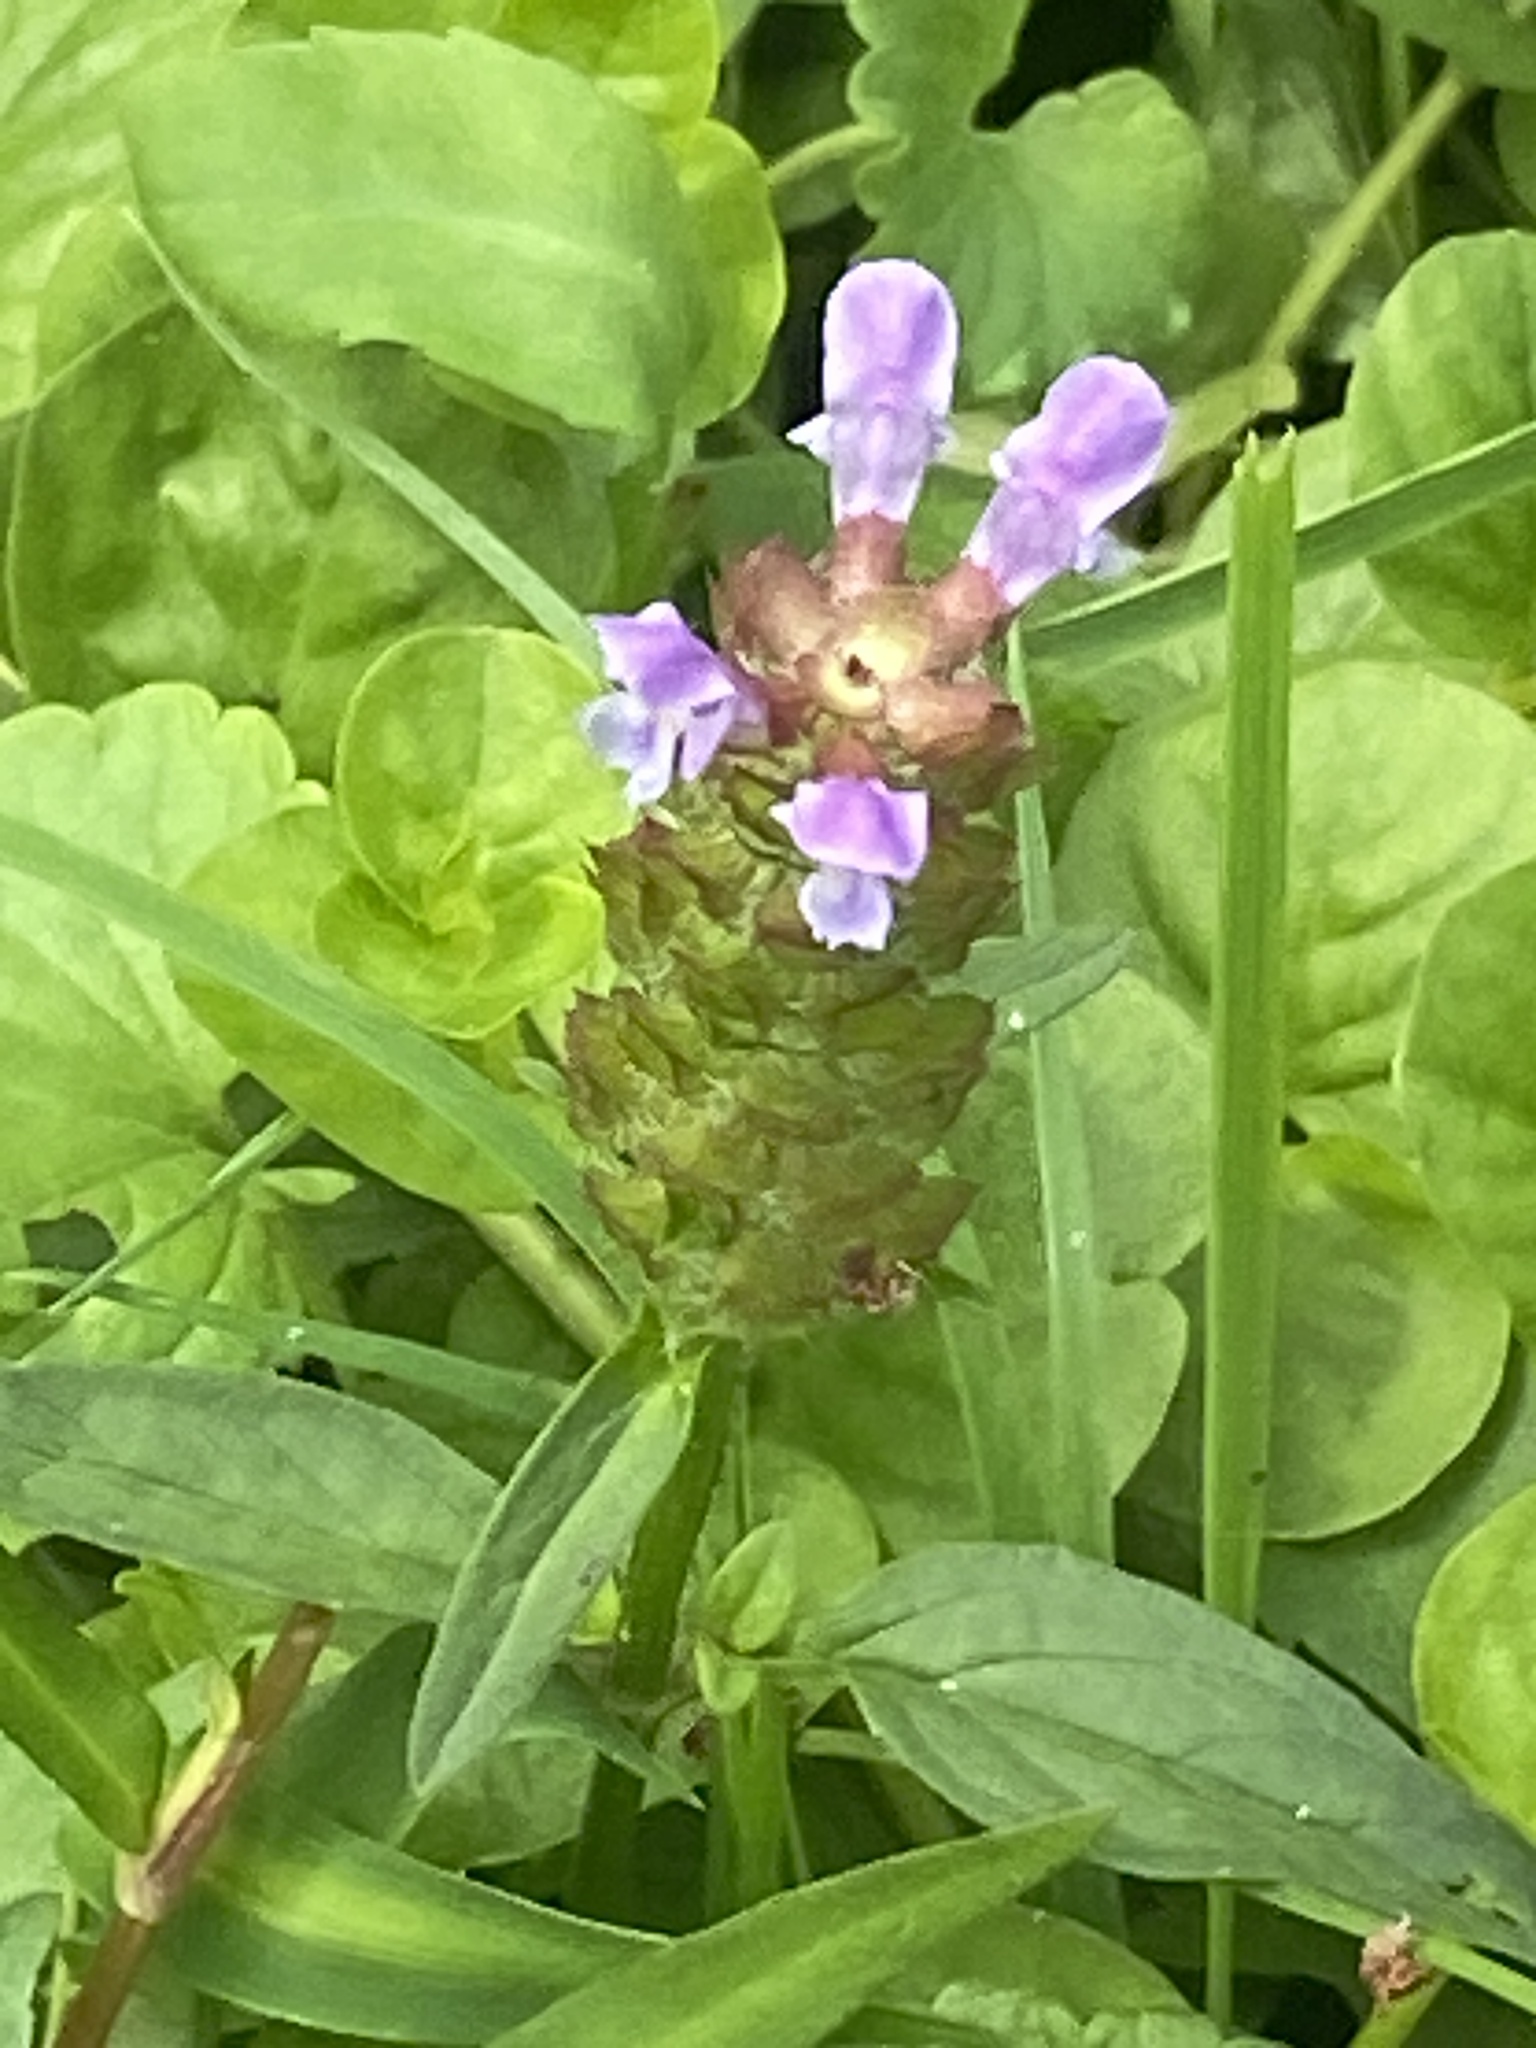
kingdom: Plantae
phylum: Tracheophyta
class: Magnoliopsida
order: Lamiales
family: Lamiaceae
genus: Prunella
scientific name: Prunella vulgaris
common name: Heal-all
